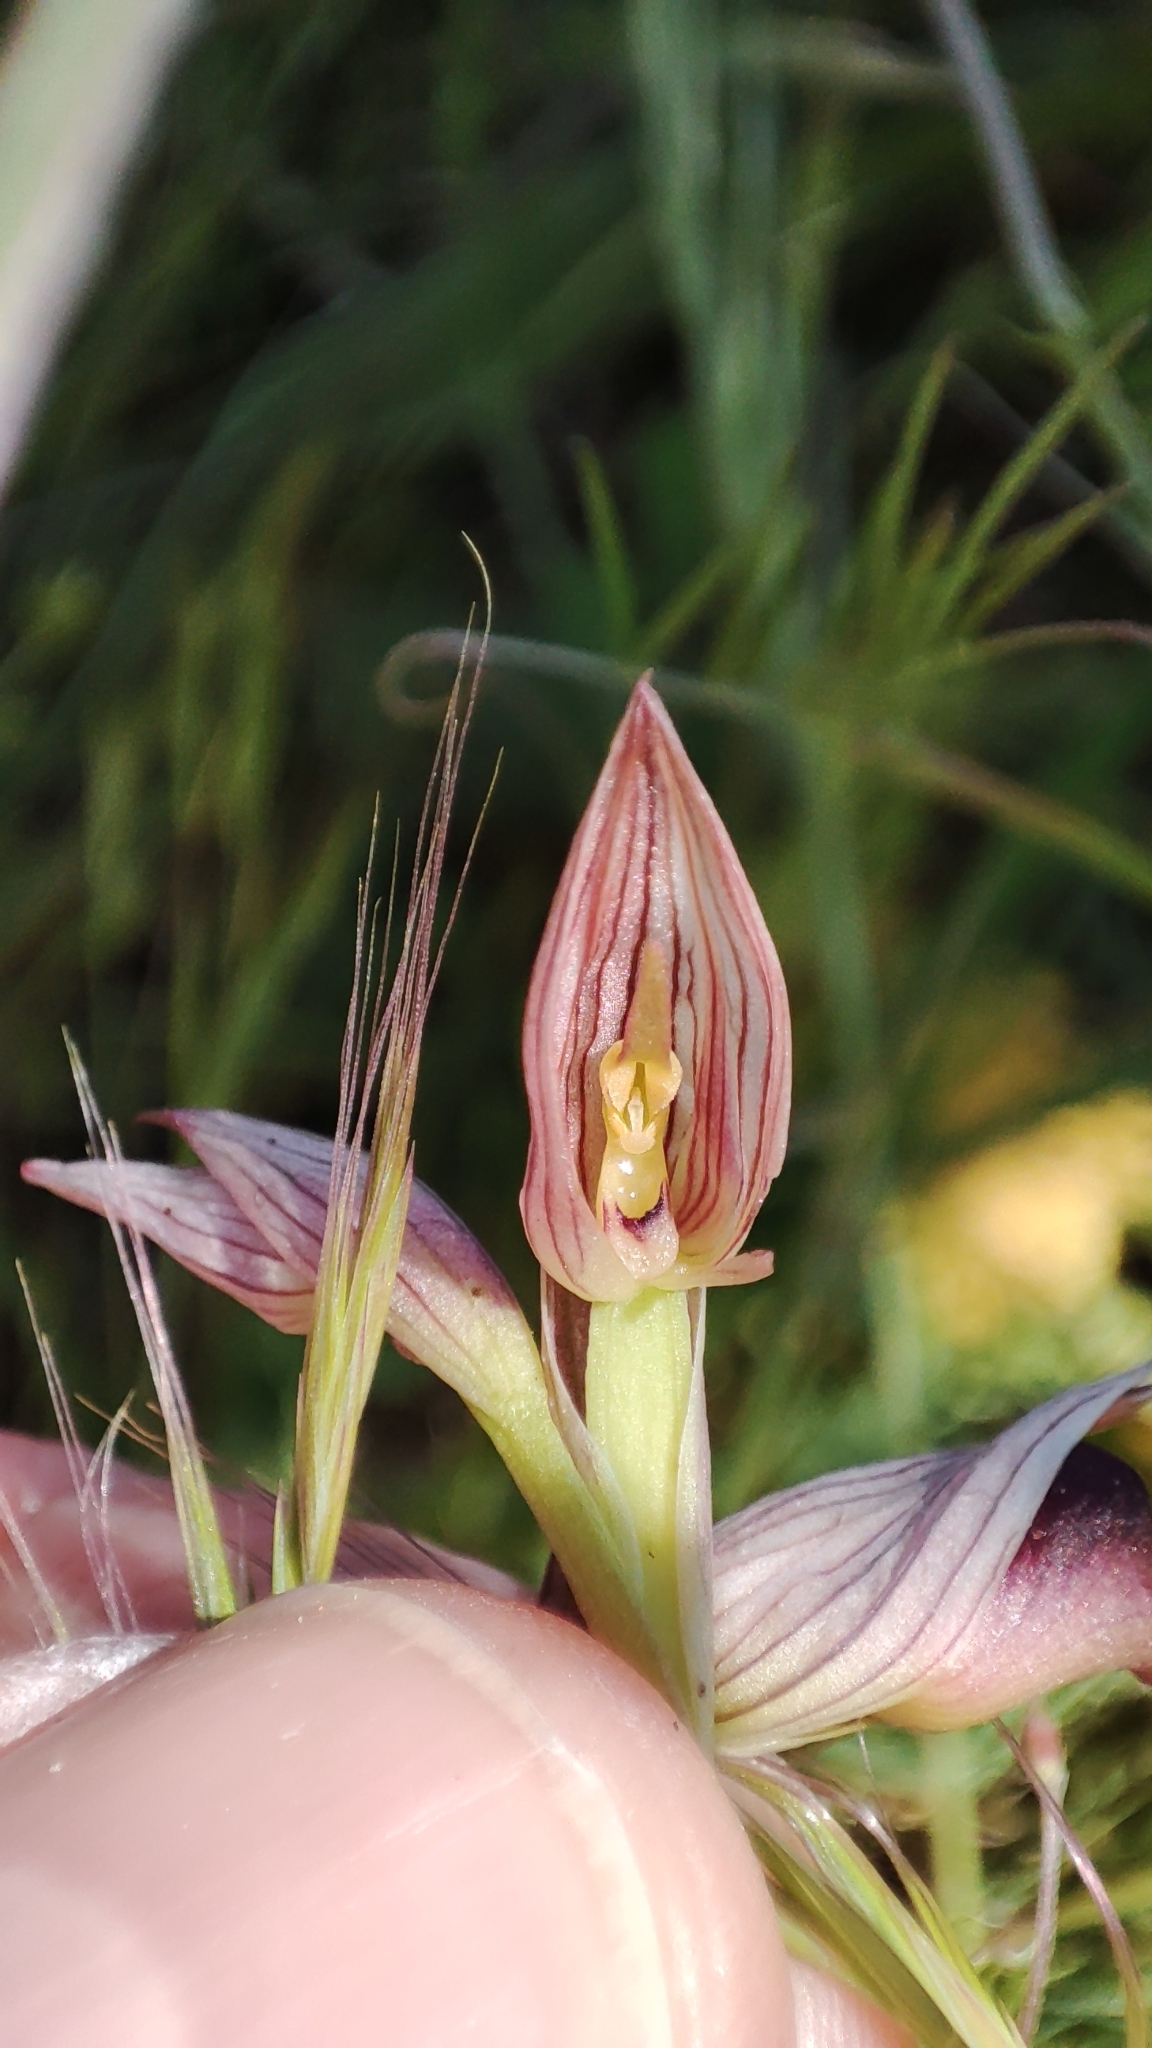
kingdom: Plantae
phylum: Tracheophyta
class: Liliopsida
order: Asparagales
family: Orchidaceae
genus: Serapias
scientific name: Serapias lingua
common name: Tongue-orchid
